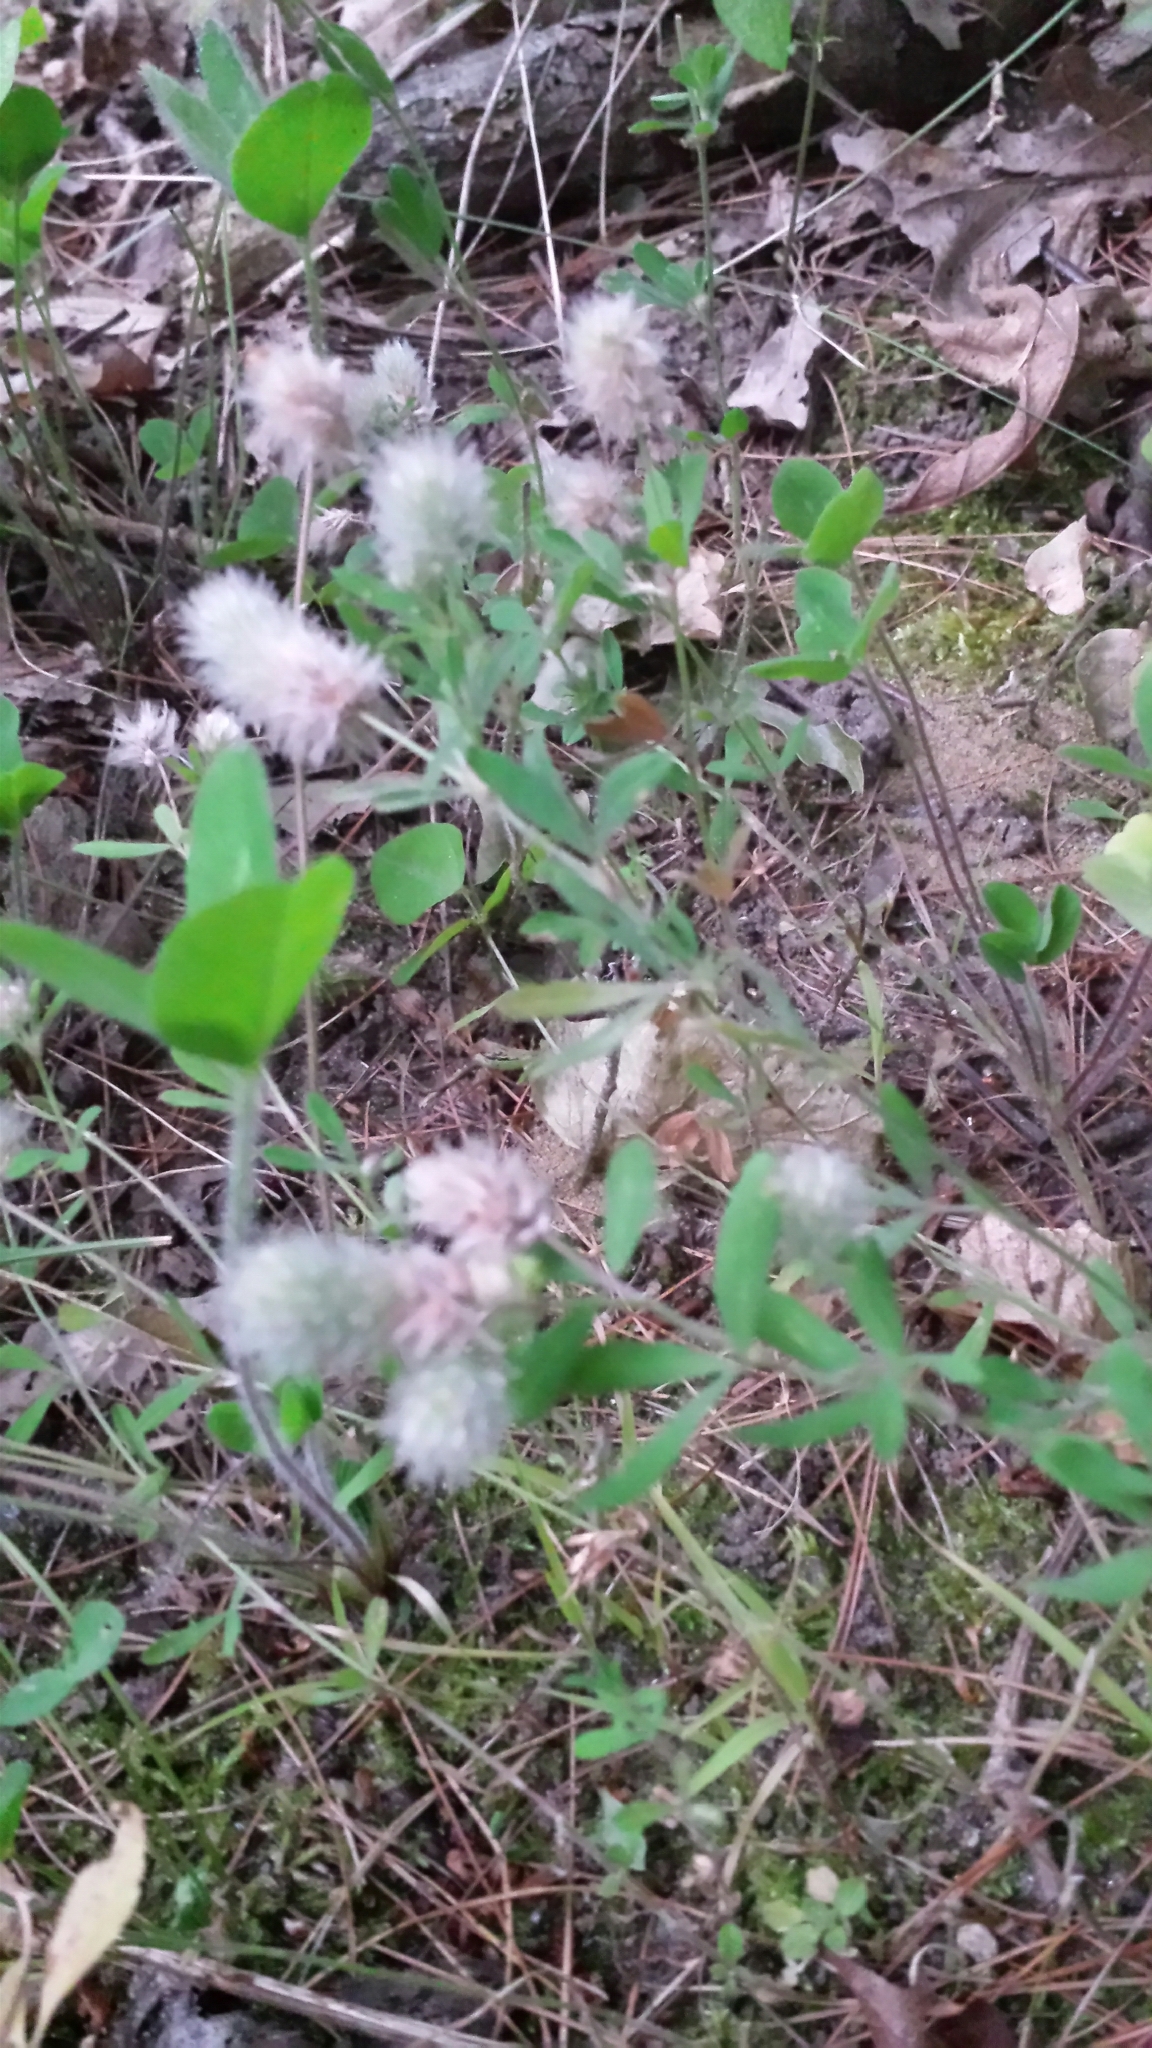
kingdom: Plantae
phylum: Tracheophyta
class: Magnoliopsida
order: Fabales
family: Fabaceae
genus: Trifolium
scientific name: Trifolium arvense
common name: Hare's-foot clover
